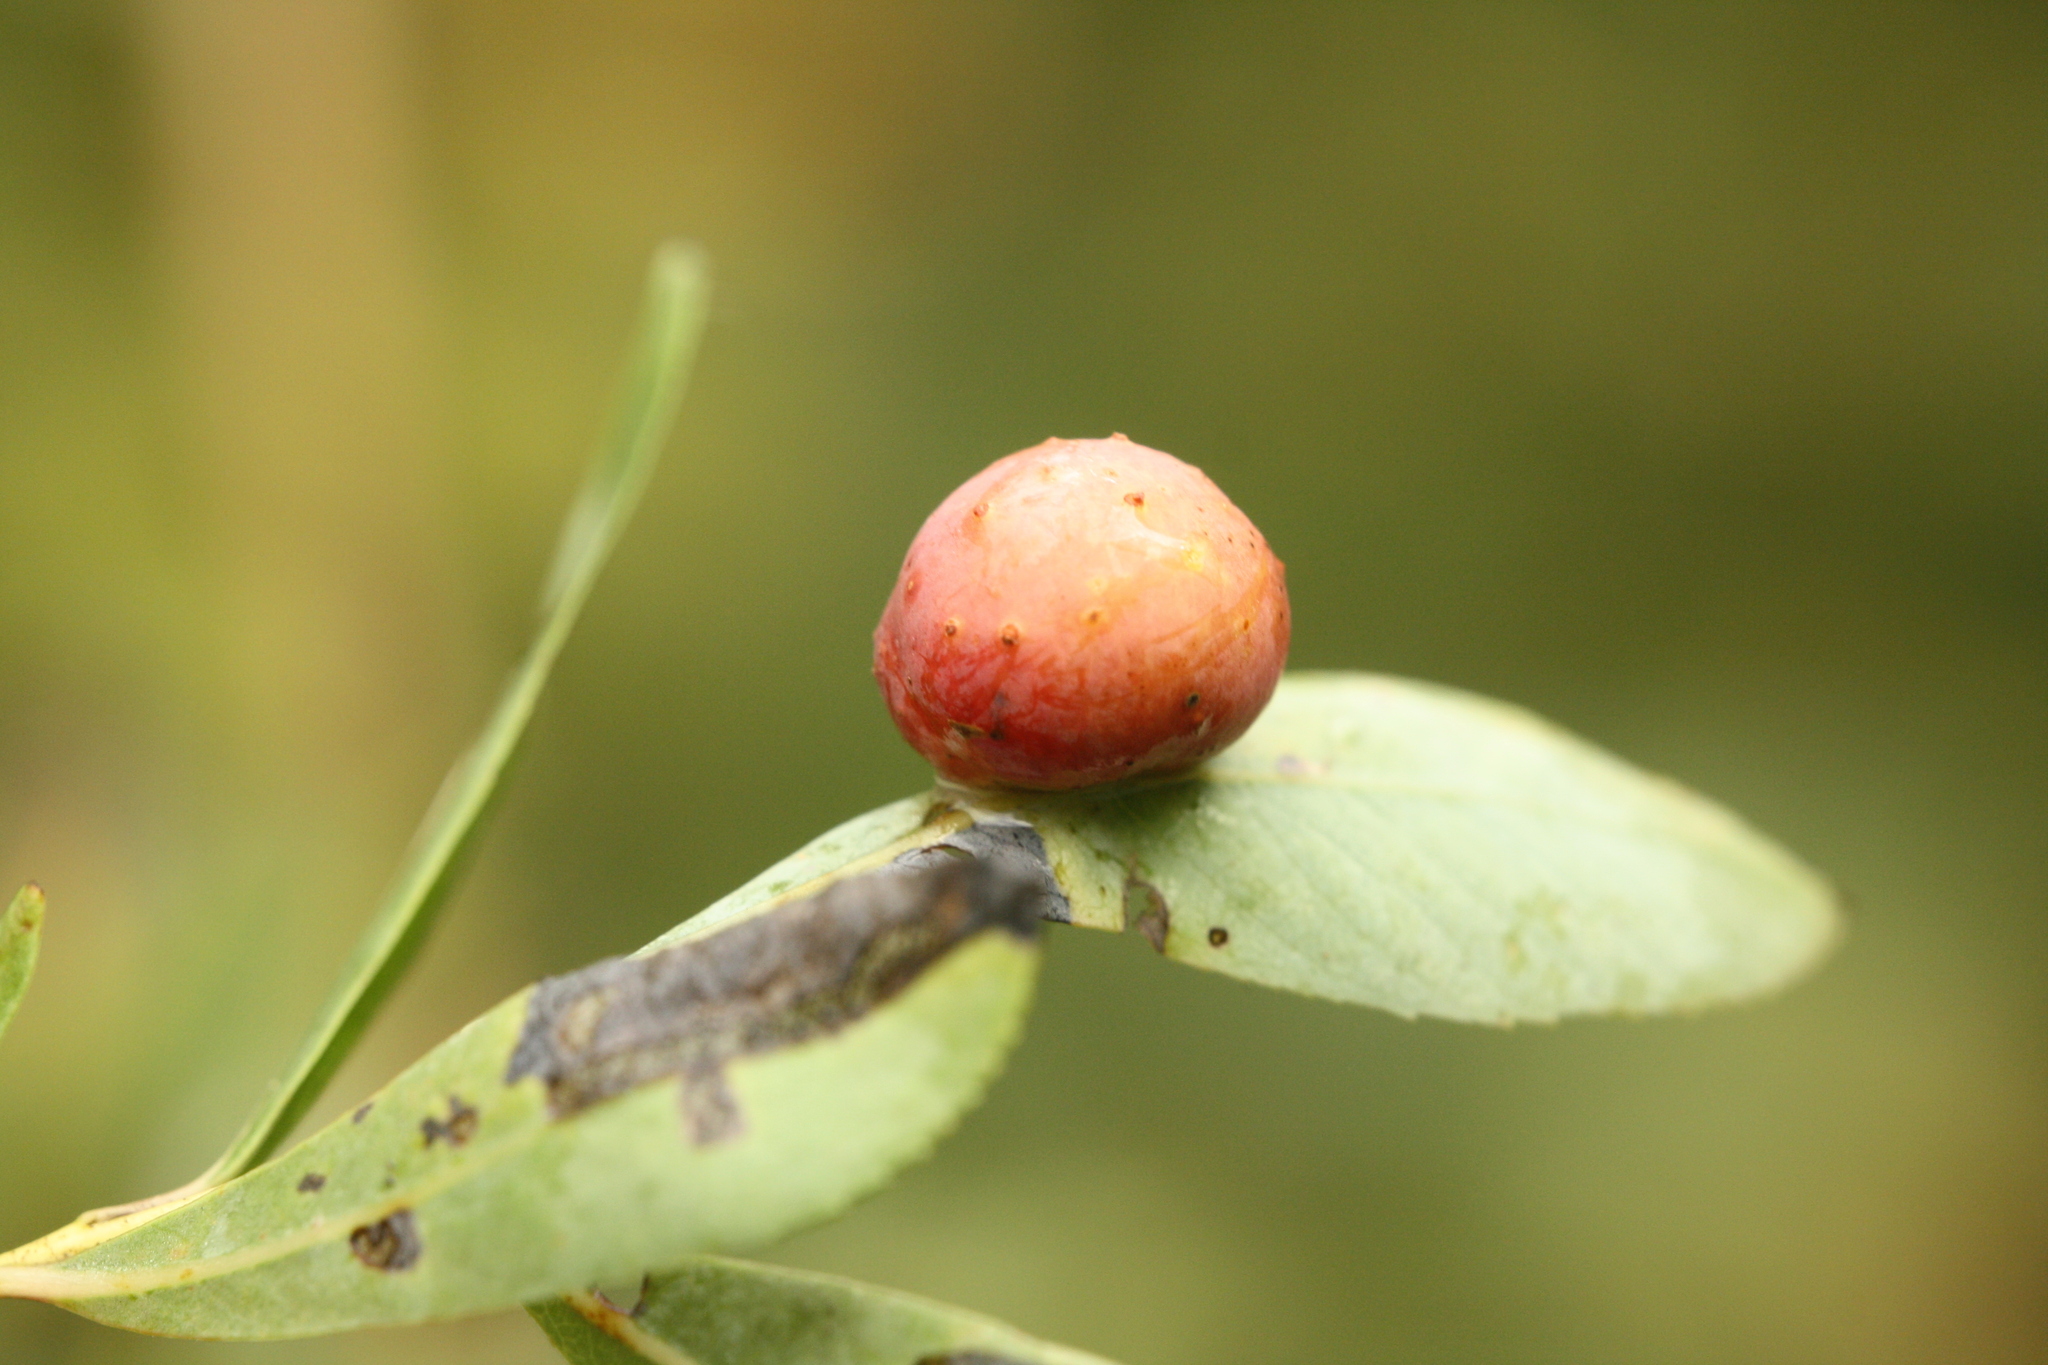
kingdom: Animalia
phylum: Arthropoda
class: Insecta
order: Hymenoptera
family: Tenthredinidae
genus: Euura
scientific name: Euura viminalis
